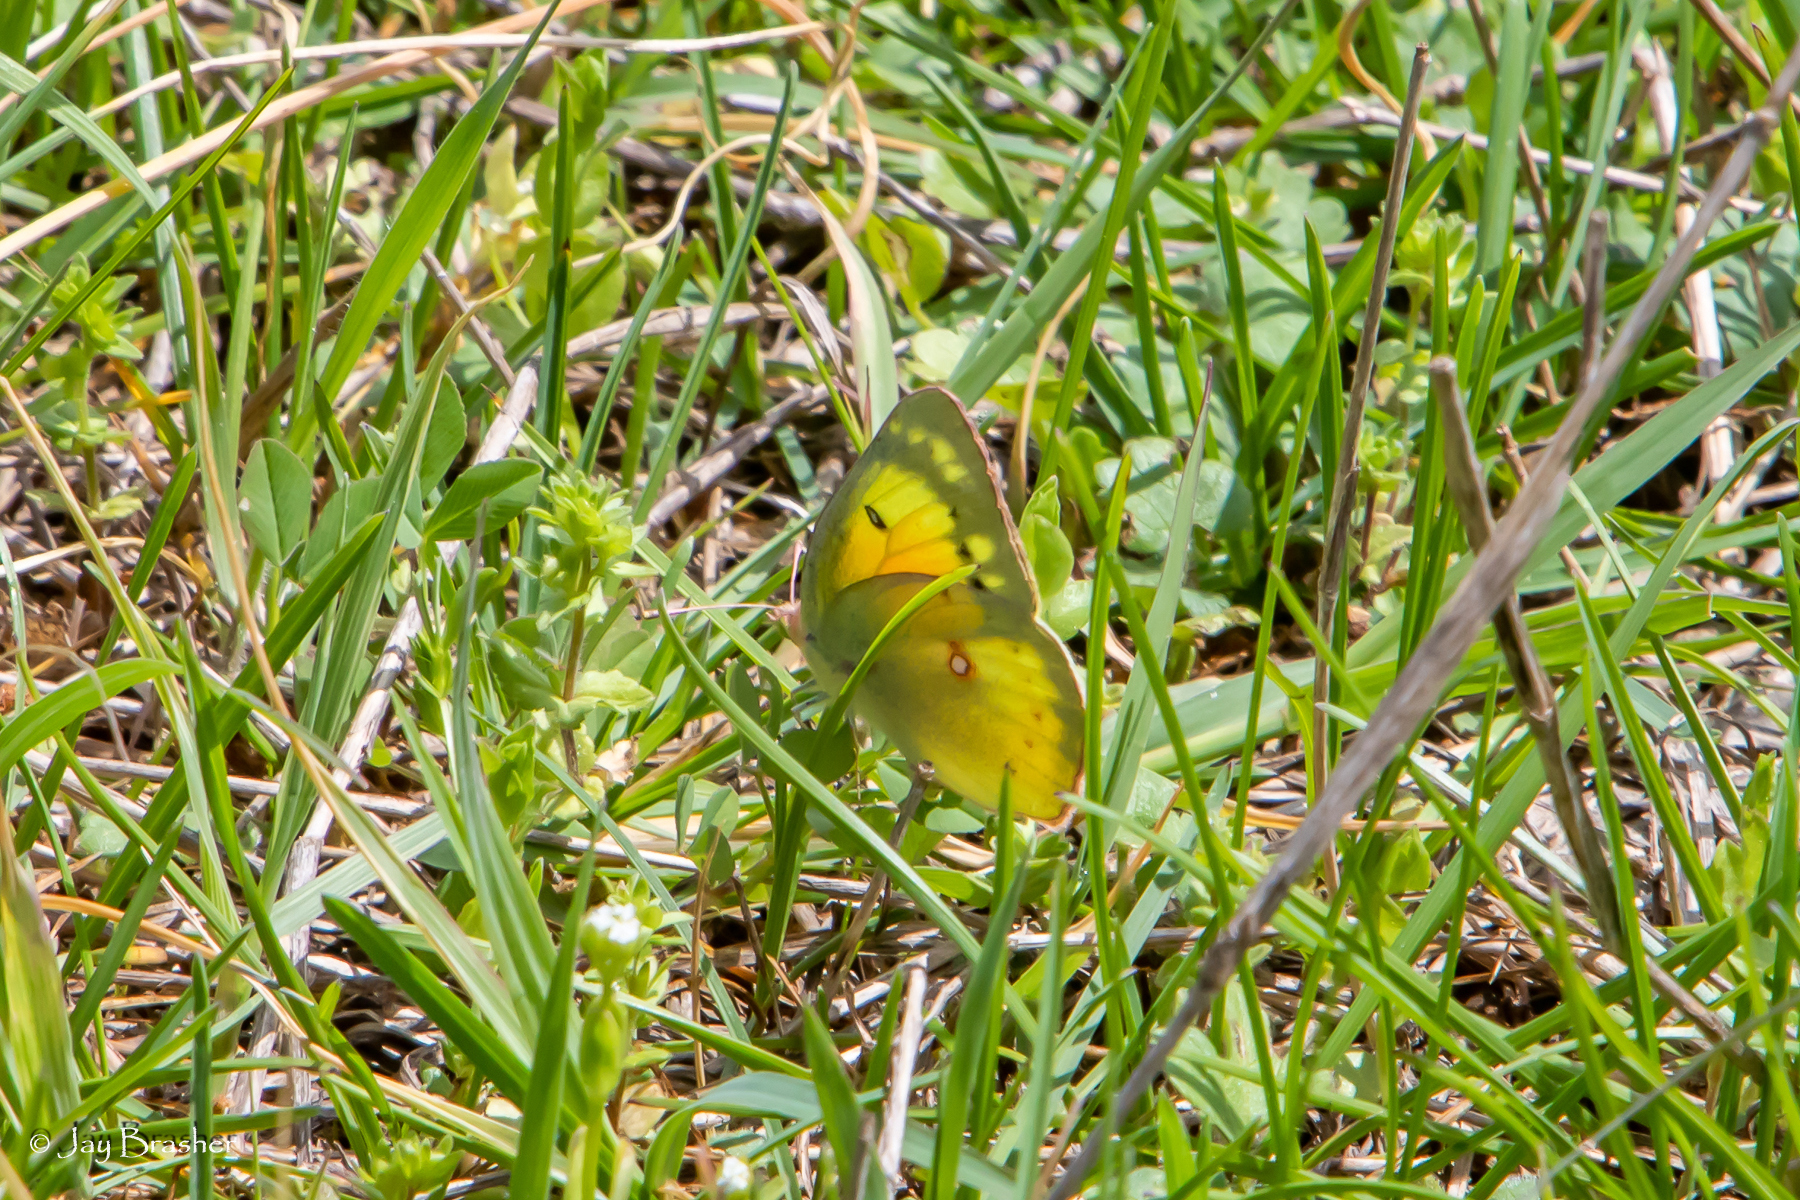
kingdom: Animalia
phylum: Arthropoda
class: Insecta
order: Lepidoptera
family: Pieridae
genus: Colias
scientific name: Colias eurytheme
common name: Alfalfa butterfly
